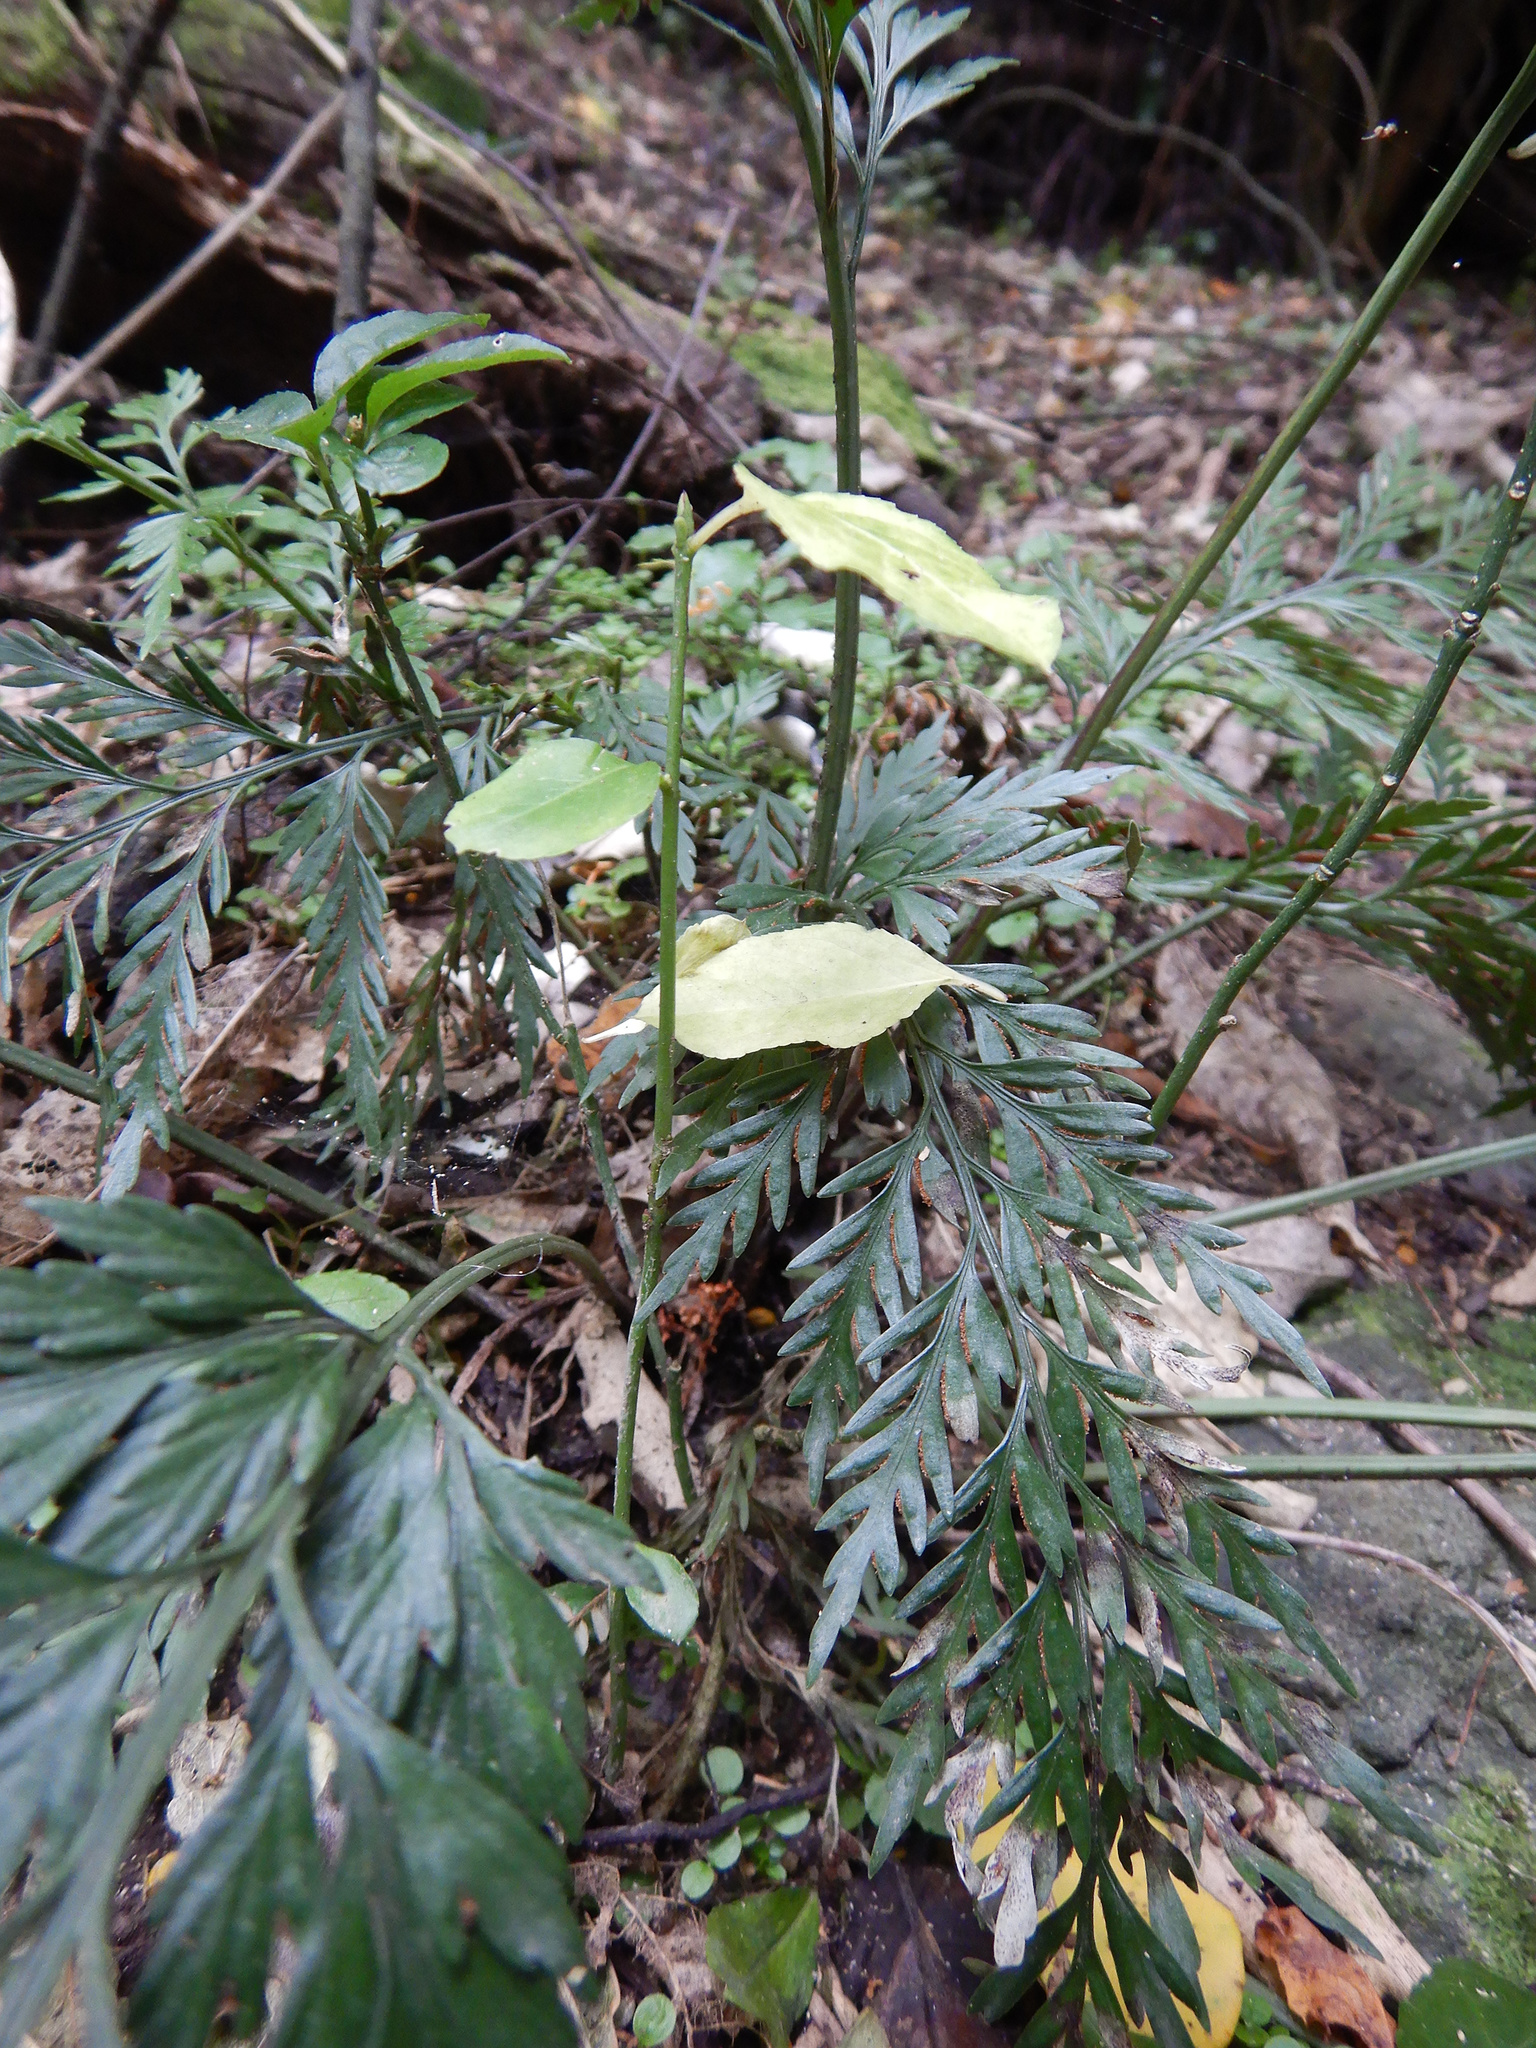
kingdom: Plantae
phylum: Tracheophyta
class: Magnoliopsida
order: Celastrales
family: Celastraceae
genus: Euonymus
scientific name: Euonymus europaeus
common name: Spindle
